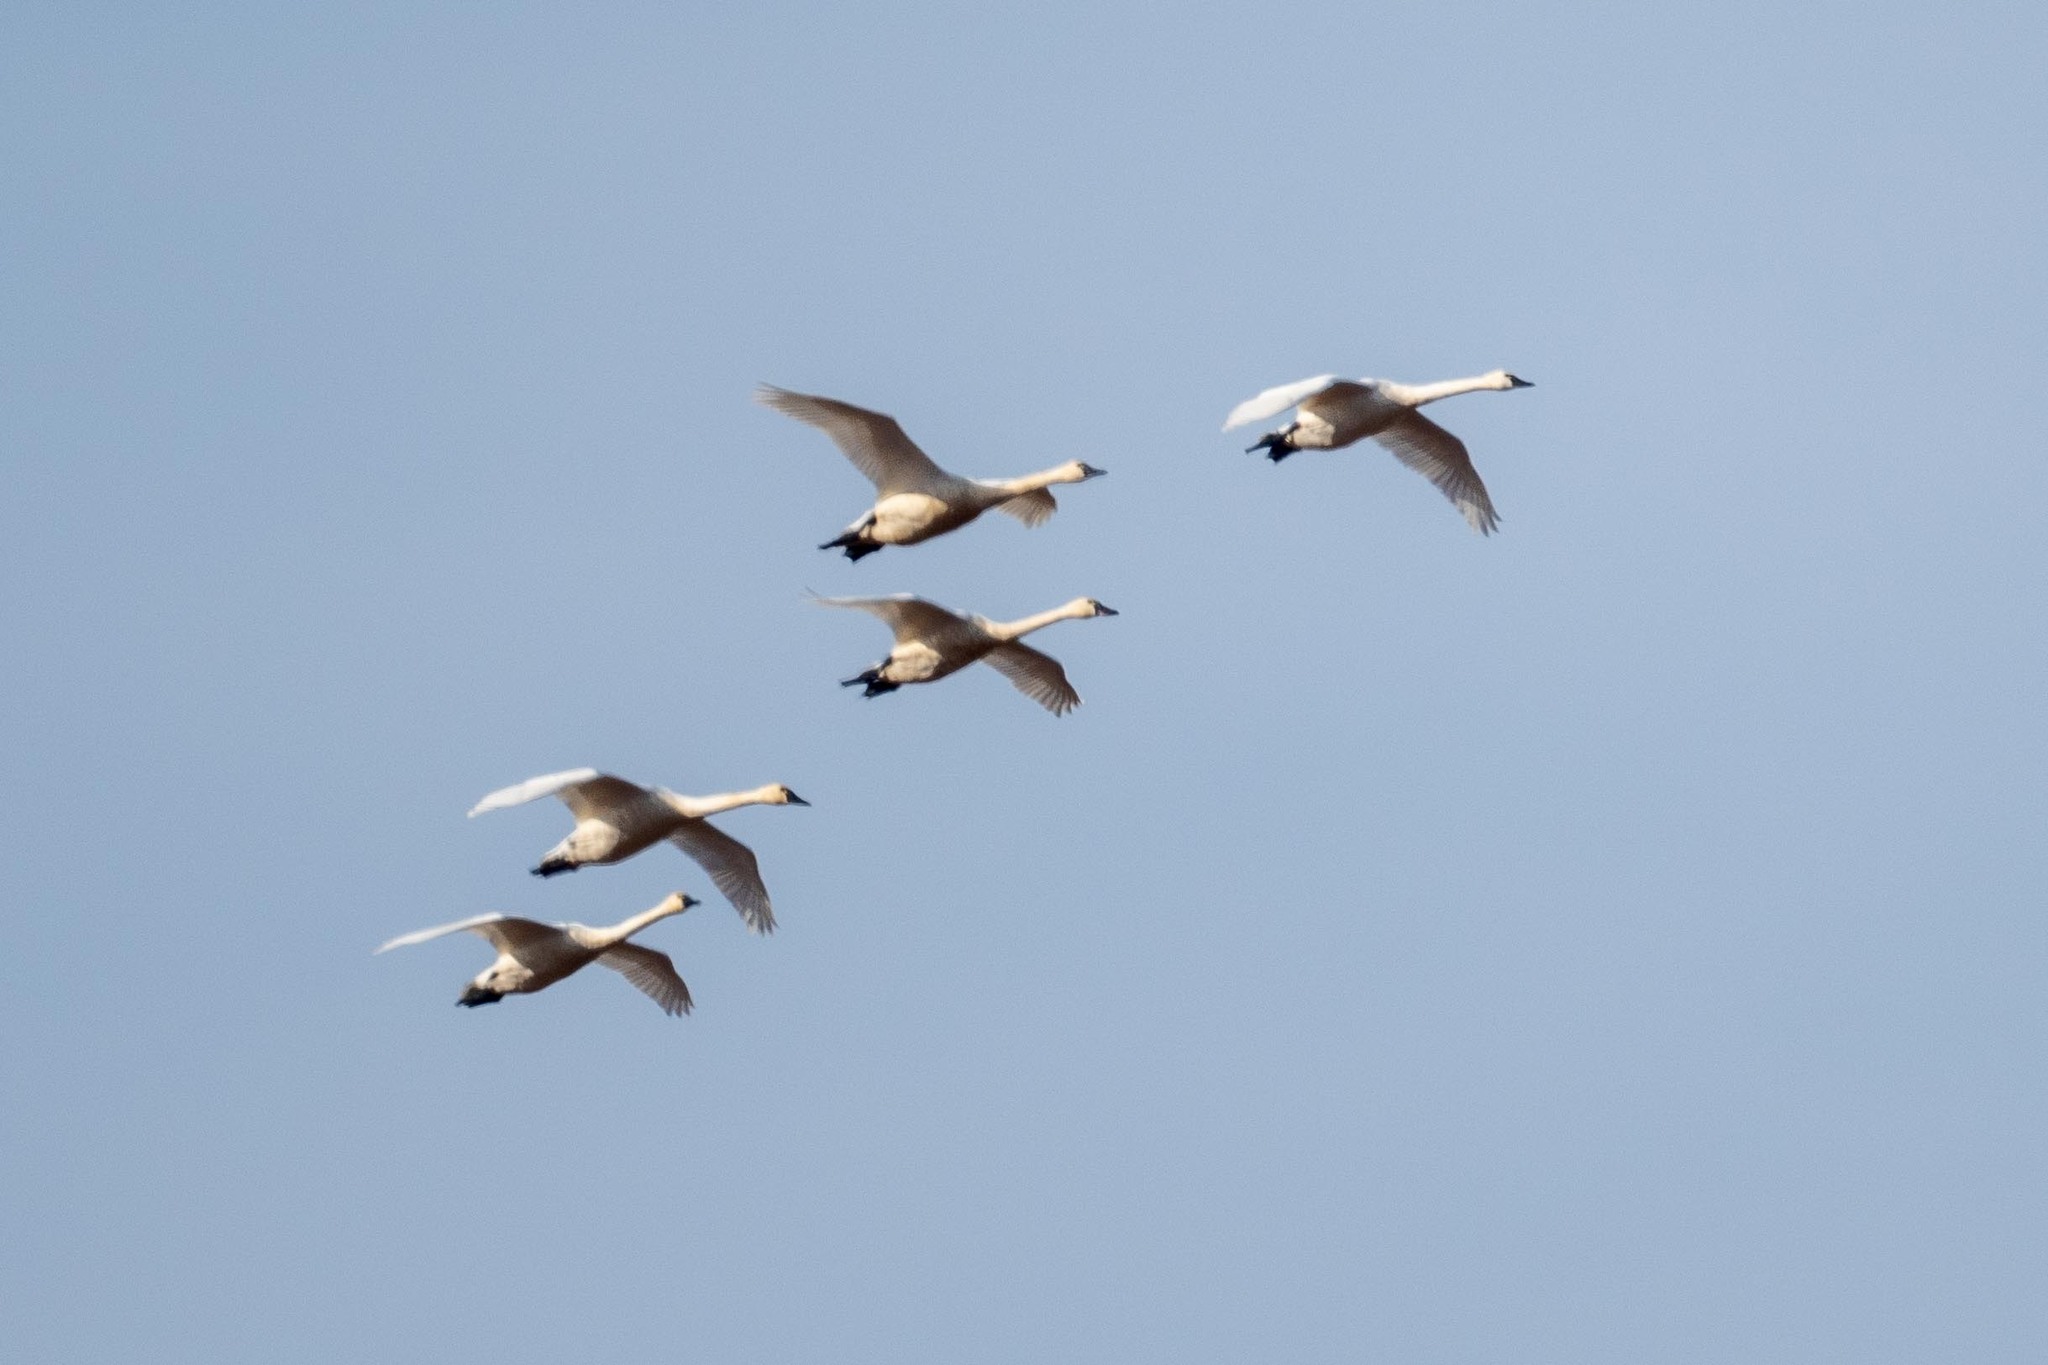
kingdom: Animalia
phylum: Chordata
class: Aves
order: Anseriformes
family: Anatidae
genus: Cygnus
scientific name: Cygnus columbianus
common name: Tundra swan
